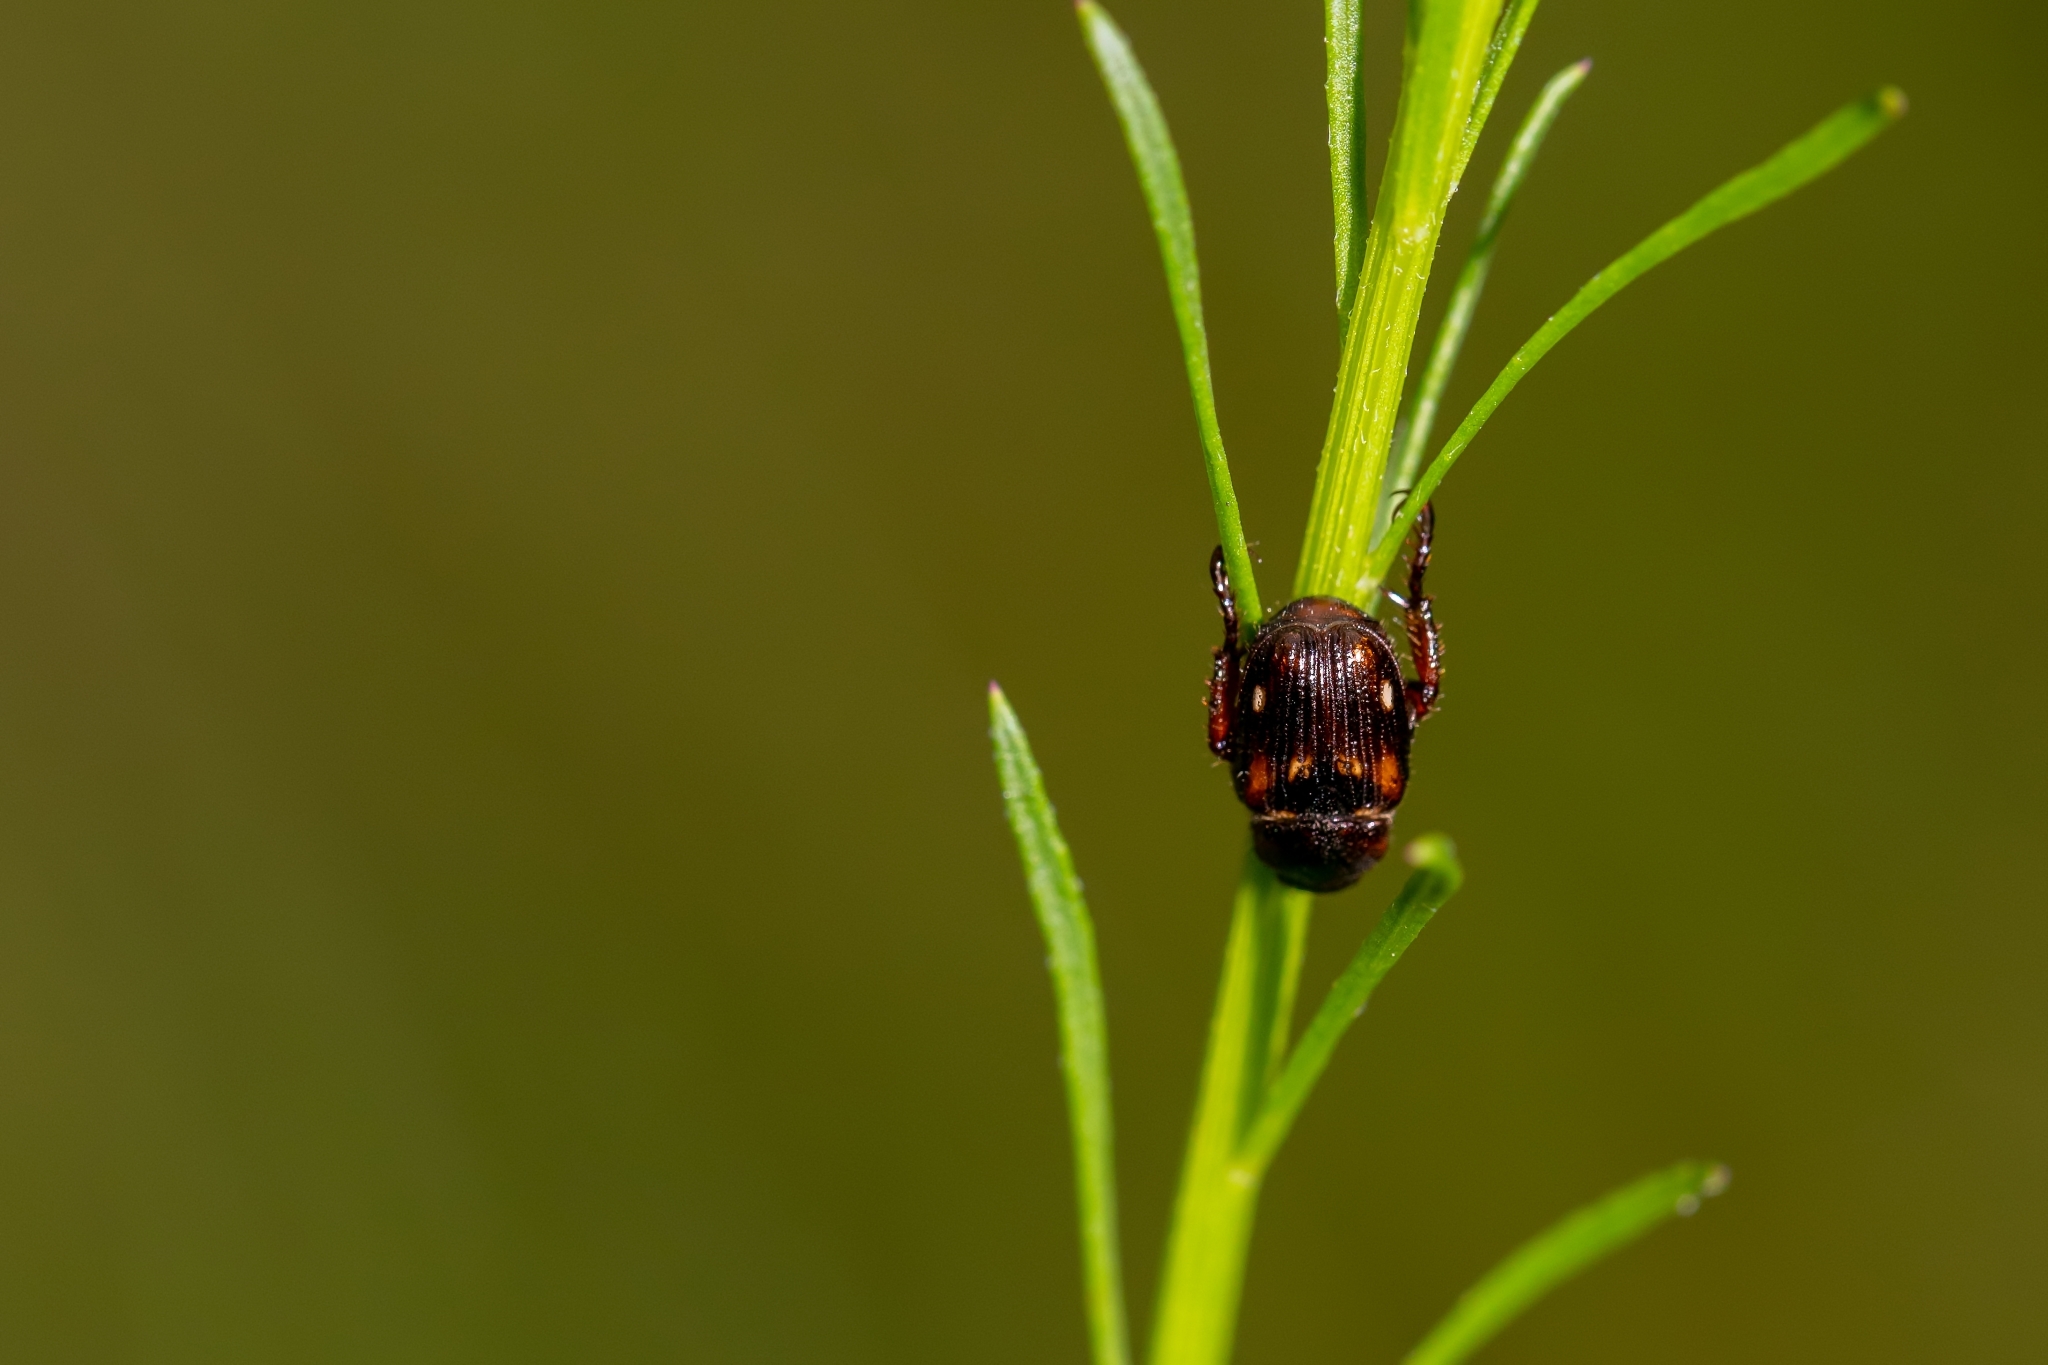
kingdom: Animalia
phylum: Arthropoda
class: Insecta
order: Coleoptera
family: Scarabaeidae
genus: Strigoderma
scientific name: Strigoderma pygmaea
